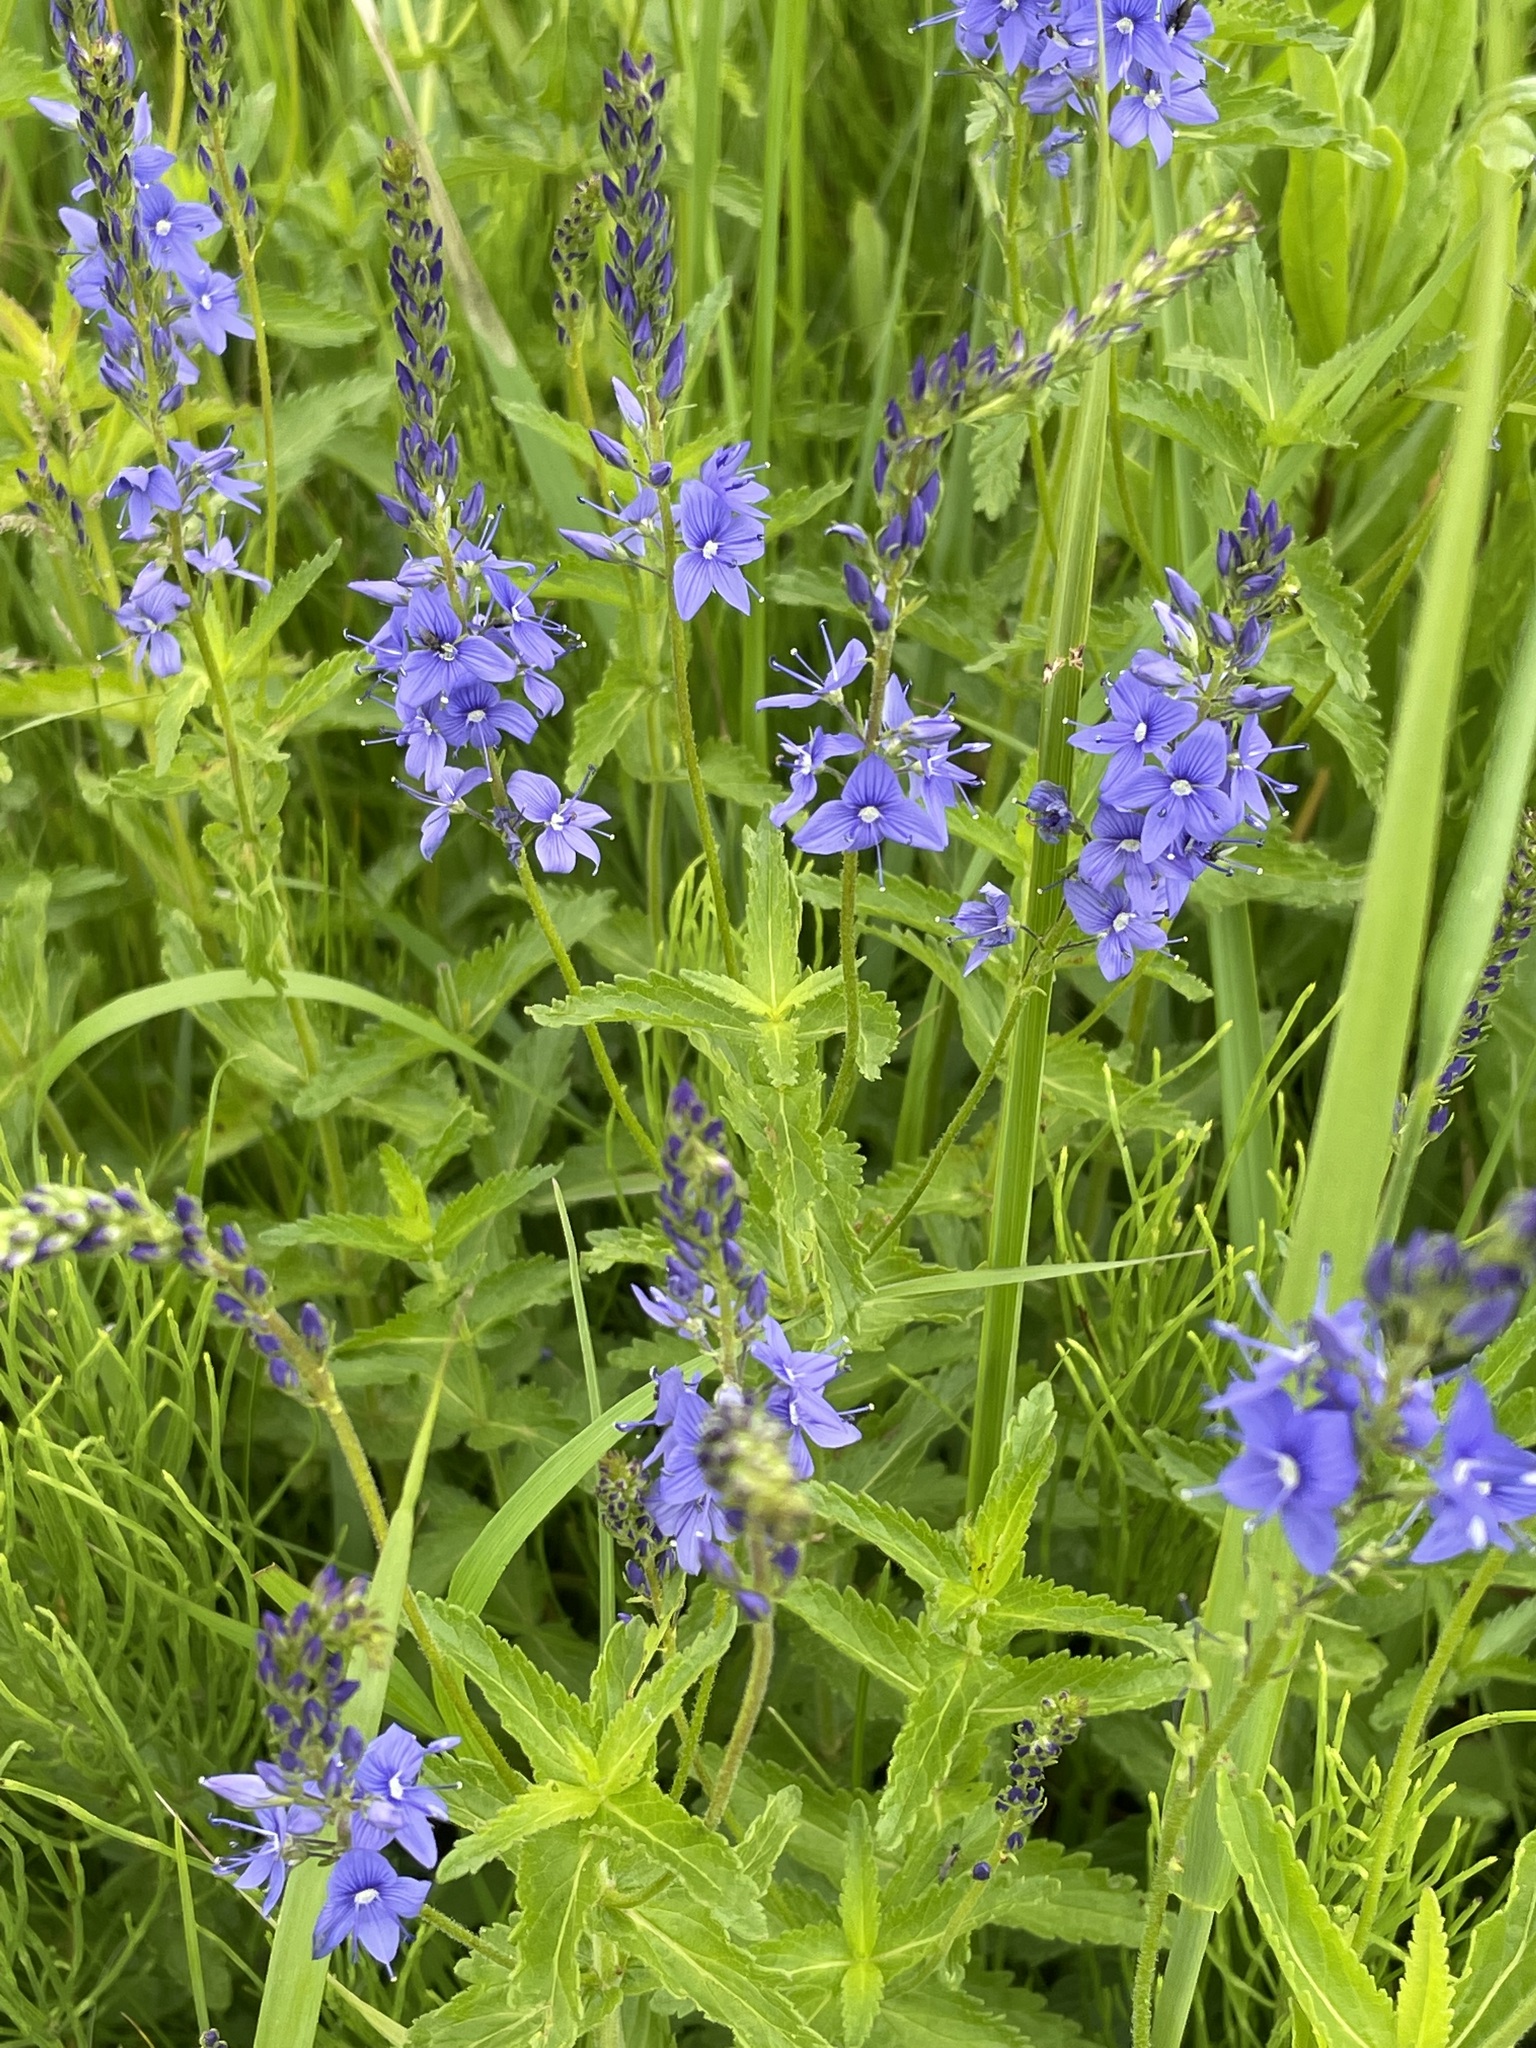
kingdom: Plantae
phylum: Tracheophyta
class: Magnoliopsida
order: Lamiales
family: Plantaginaceae
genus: Veronica
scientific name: Veronica teucrium
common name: Large speedwell
